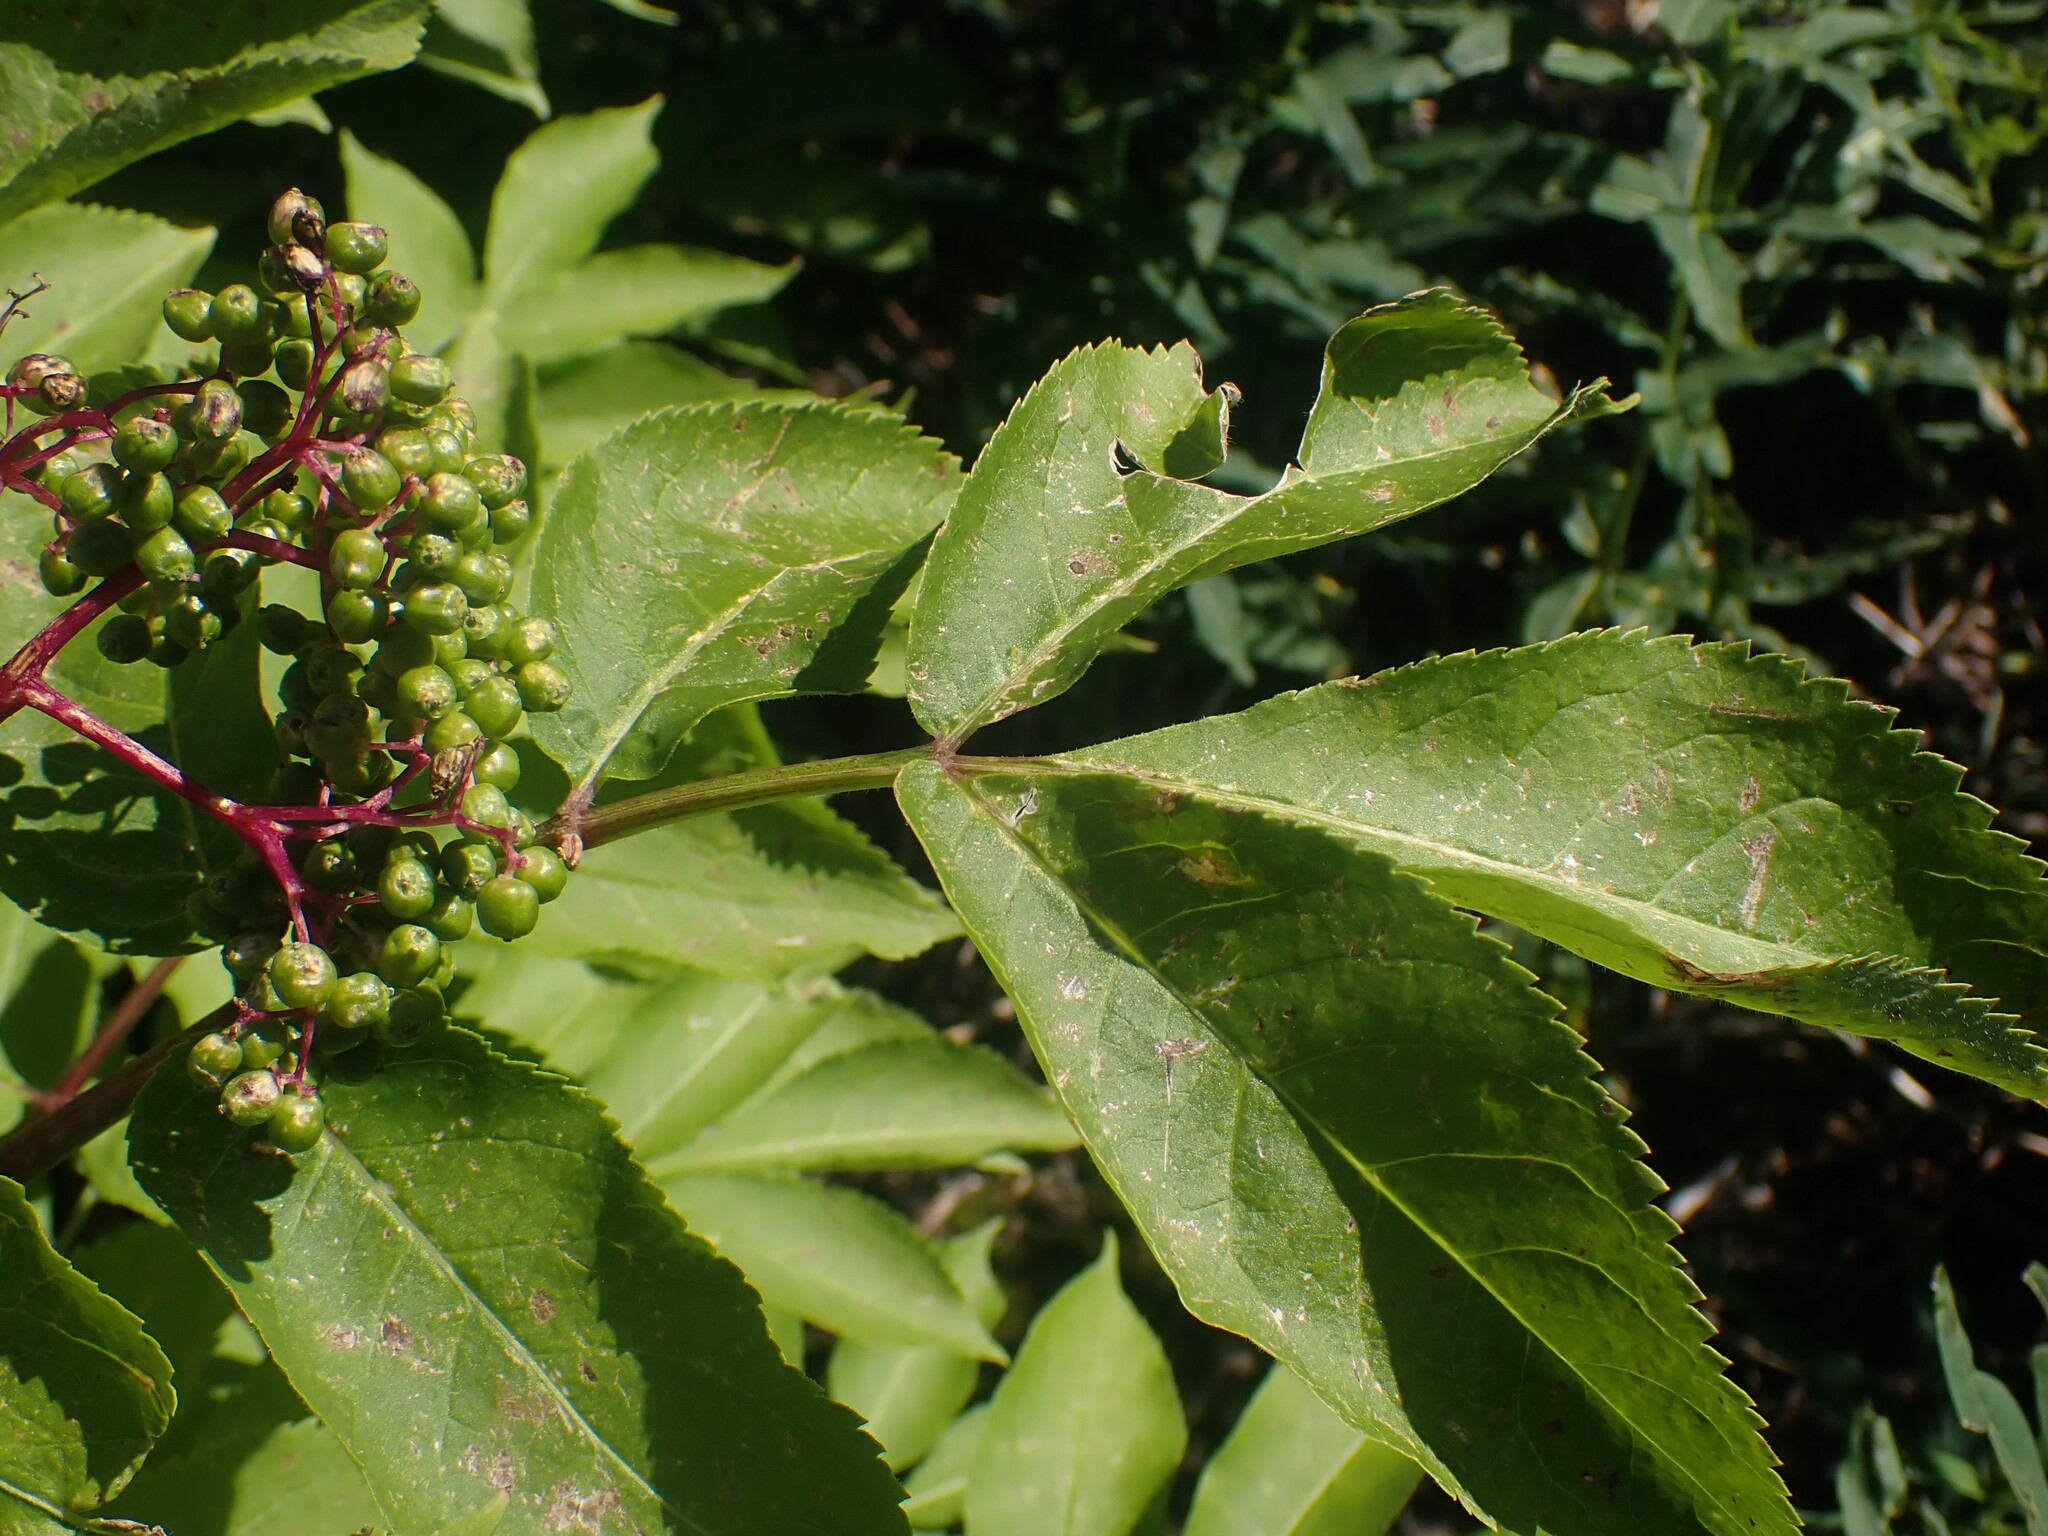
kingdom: Plantae
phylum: Tracheophyta
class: Magnoliopsida
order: Dipsacales
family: Viburnaceae
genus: Sambucus
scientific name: Sambucus racemosa
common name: Red-berried elder
